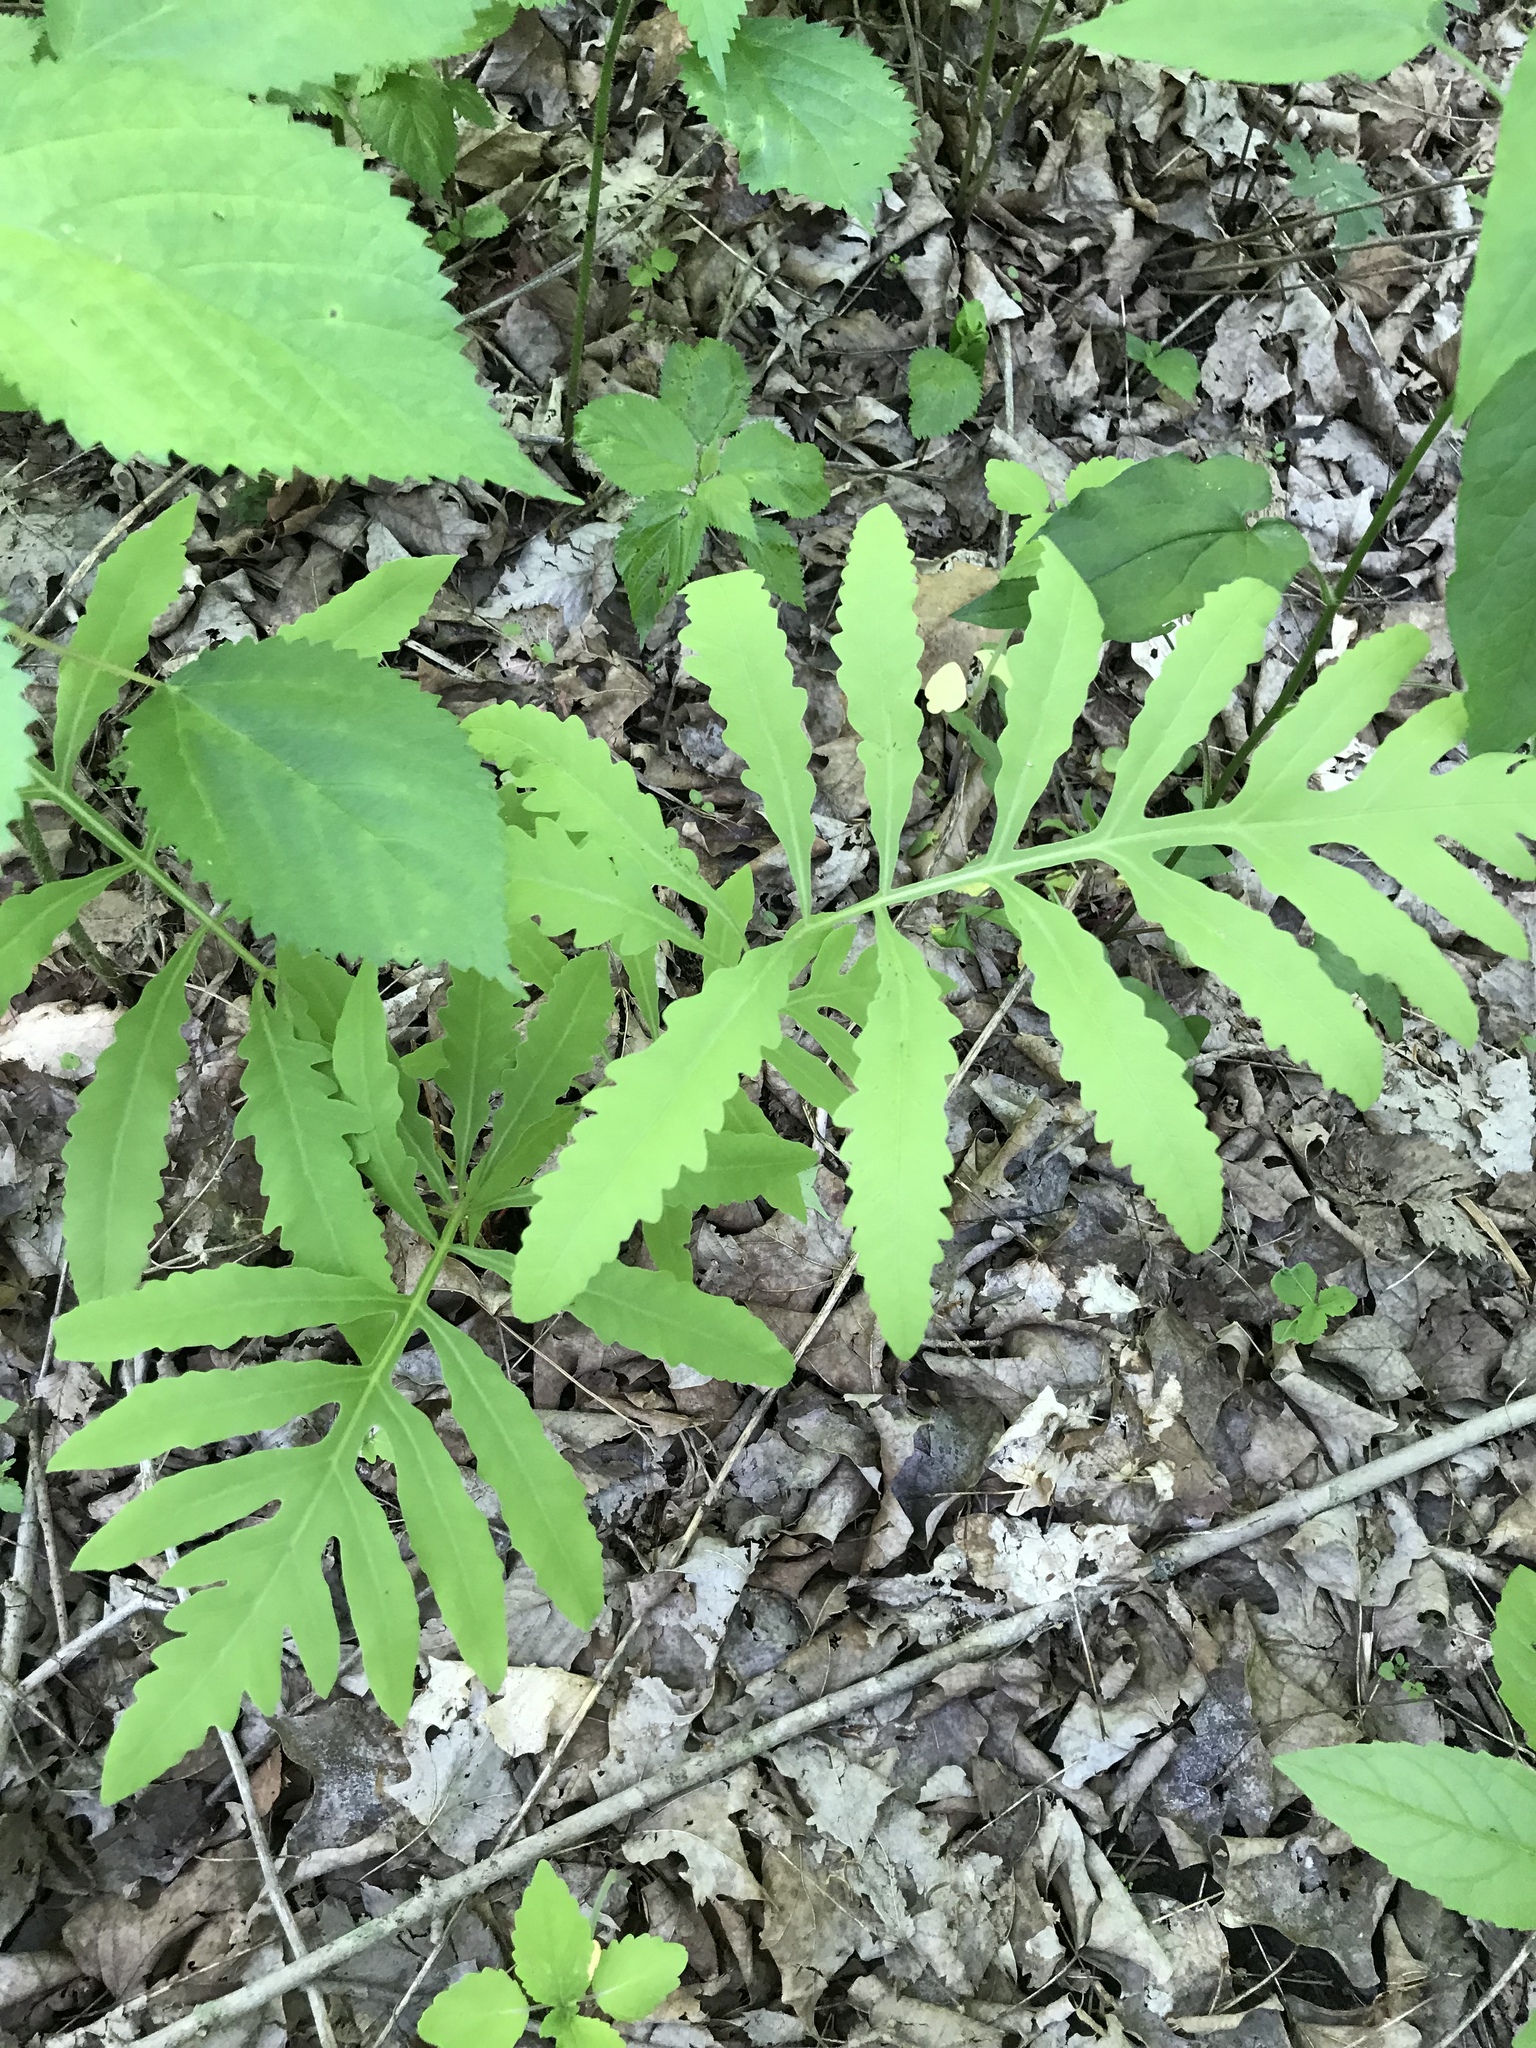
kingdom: Plantae
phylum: Tracheophyta
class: Polypodiopsida
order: Polypodiales
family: Onocleaceae
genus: Onoclea
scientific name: Onoclea sensibilis
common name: Sensitive fern
